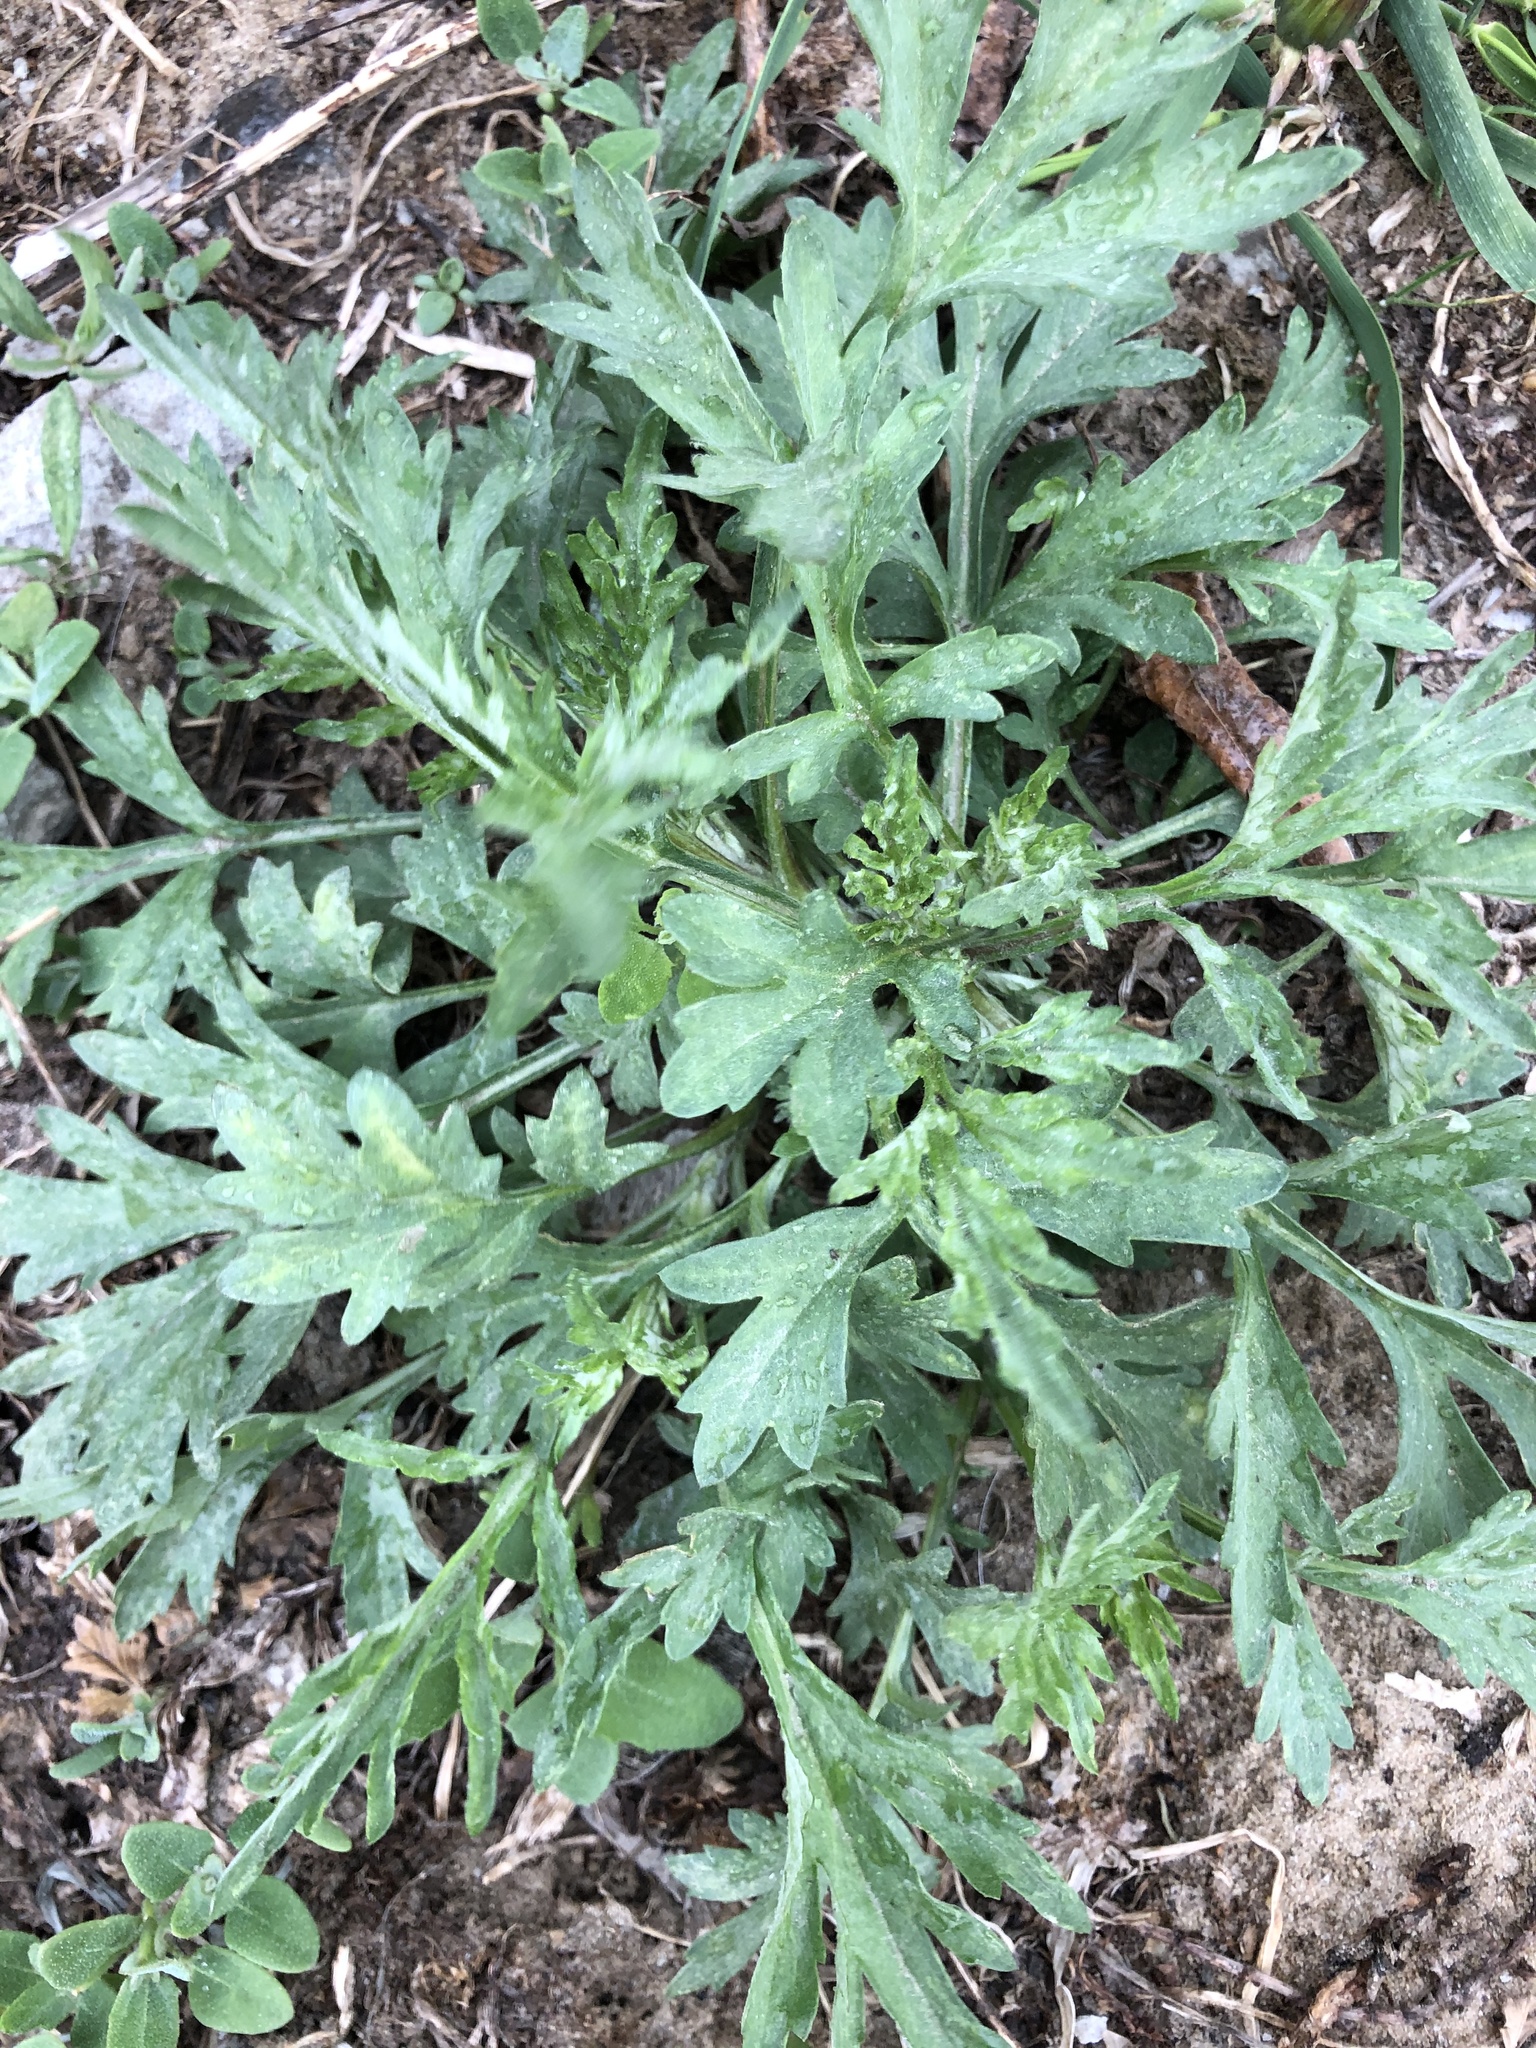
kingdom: Plantae
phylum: Tracheophyta
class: Magnoliopsida
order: Asterales
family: Asteraceae
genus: Artemisia
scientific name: Artemisia vulgaris
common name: Mugwort
